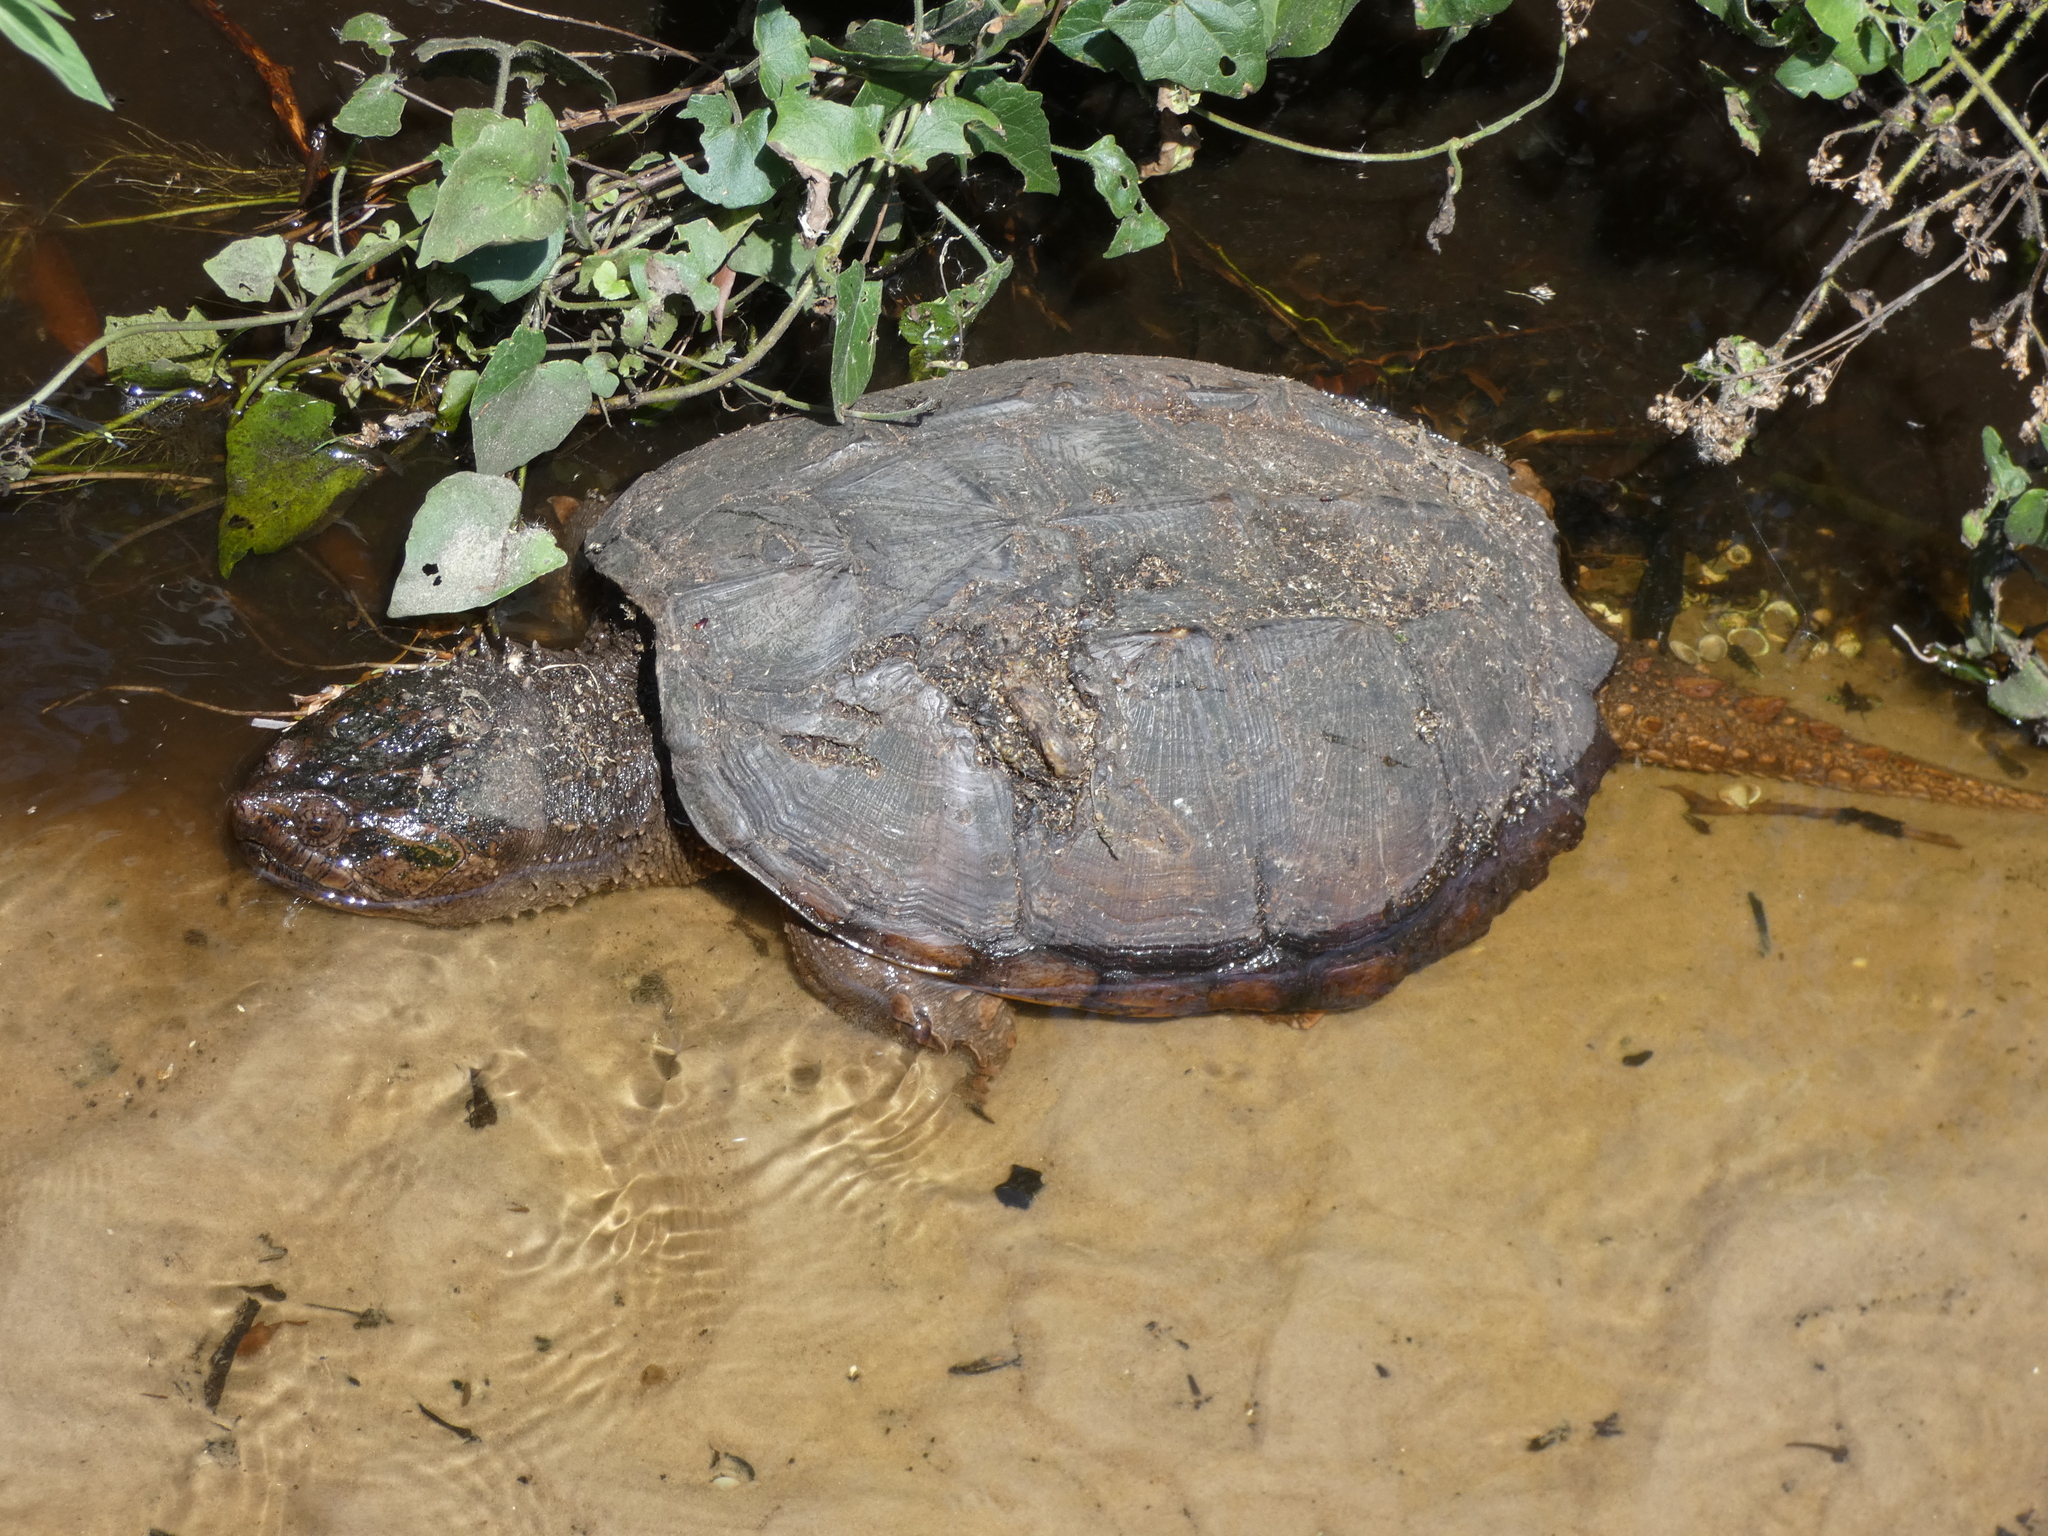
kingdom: Animalia
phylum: Chordata
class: Testudines
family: Chelydridae
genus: Chelydra
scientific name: Chelydra serpentina
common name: Common snapping turtle
